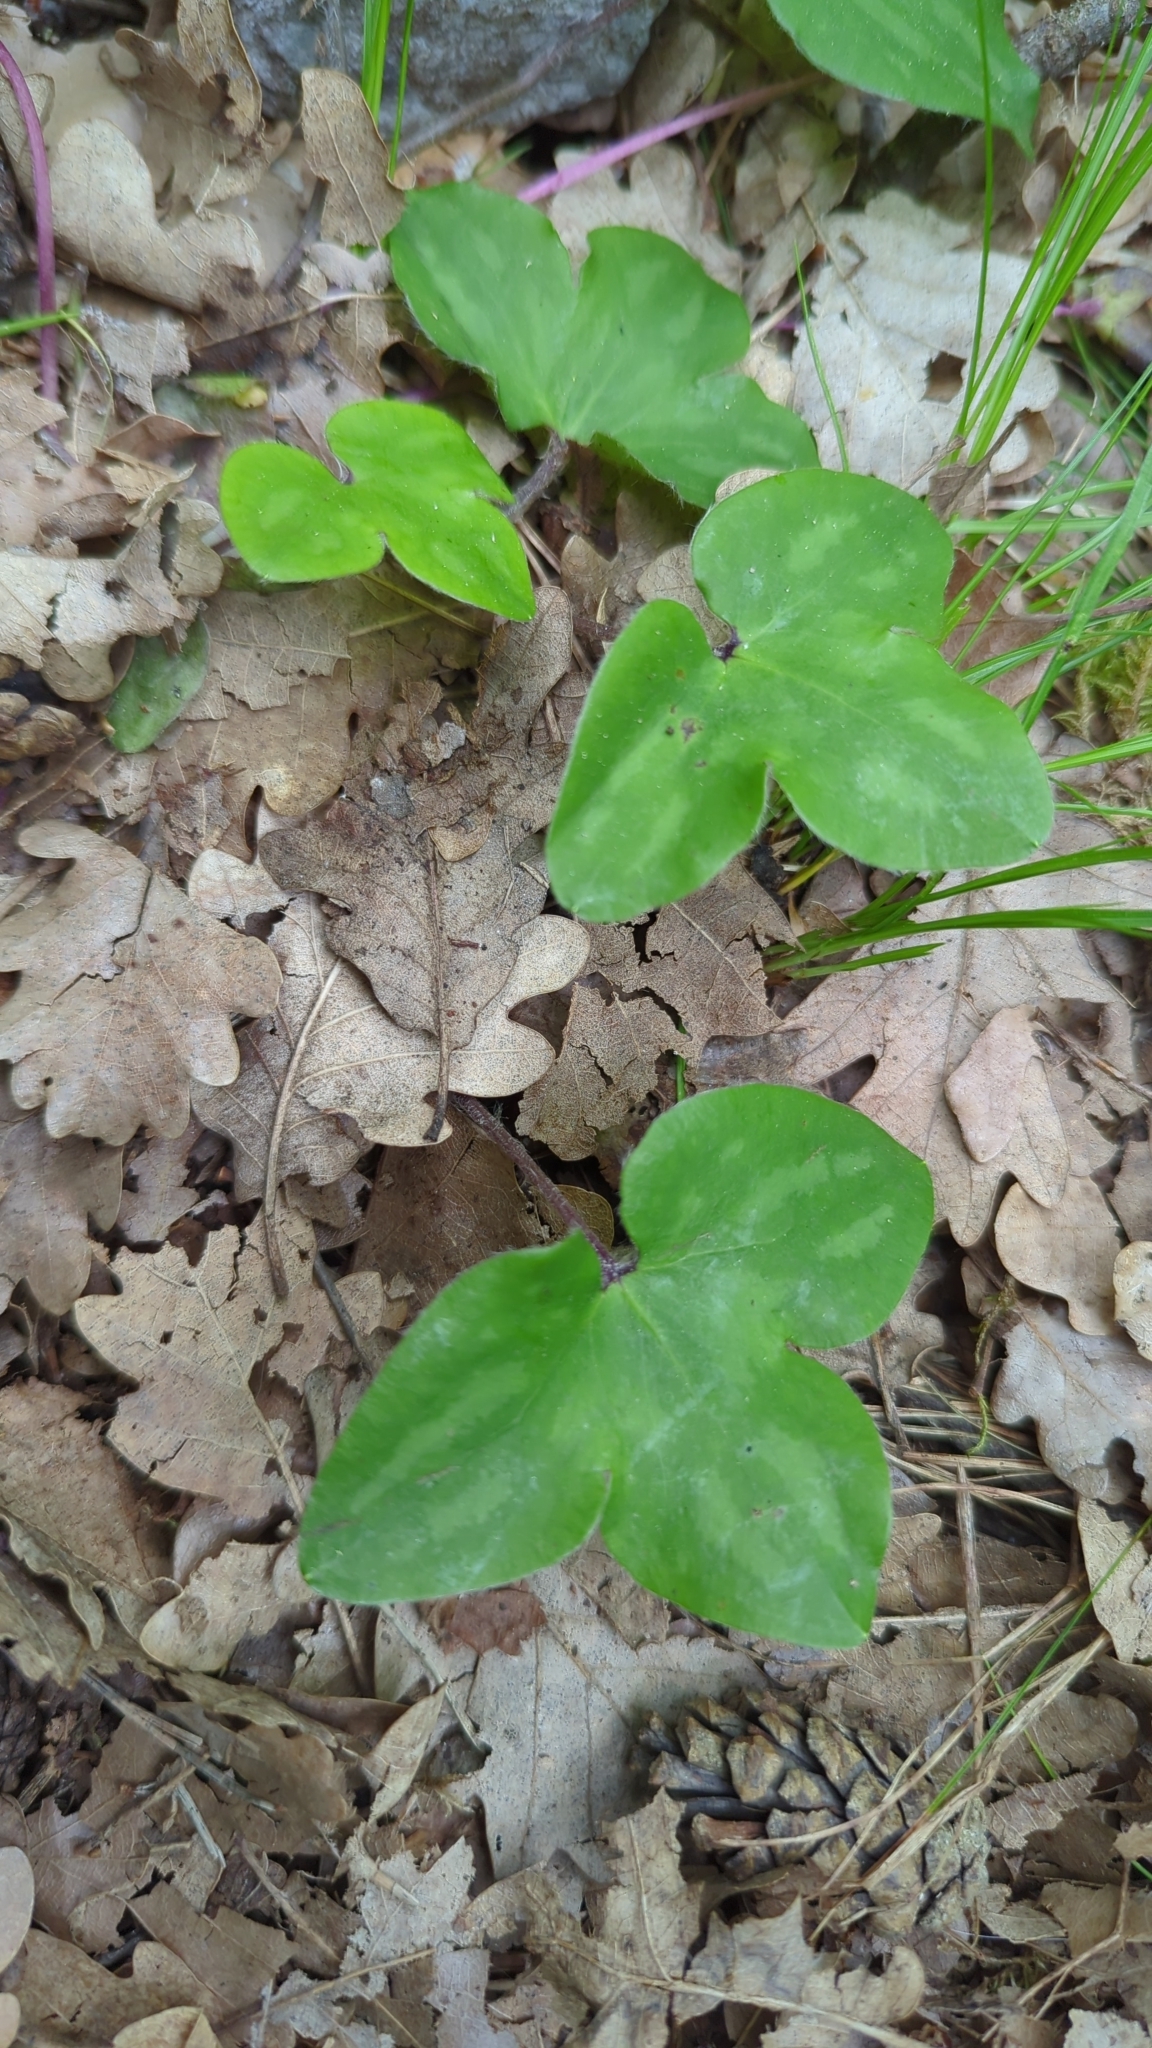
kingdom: Plantae
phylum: Tracheophyta
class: Magnoliopsida
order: Ranunculales
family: Ranunculaceae
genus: Hepatica
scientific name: Hepatica nobilis
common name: Liverleaf
